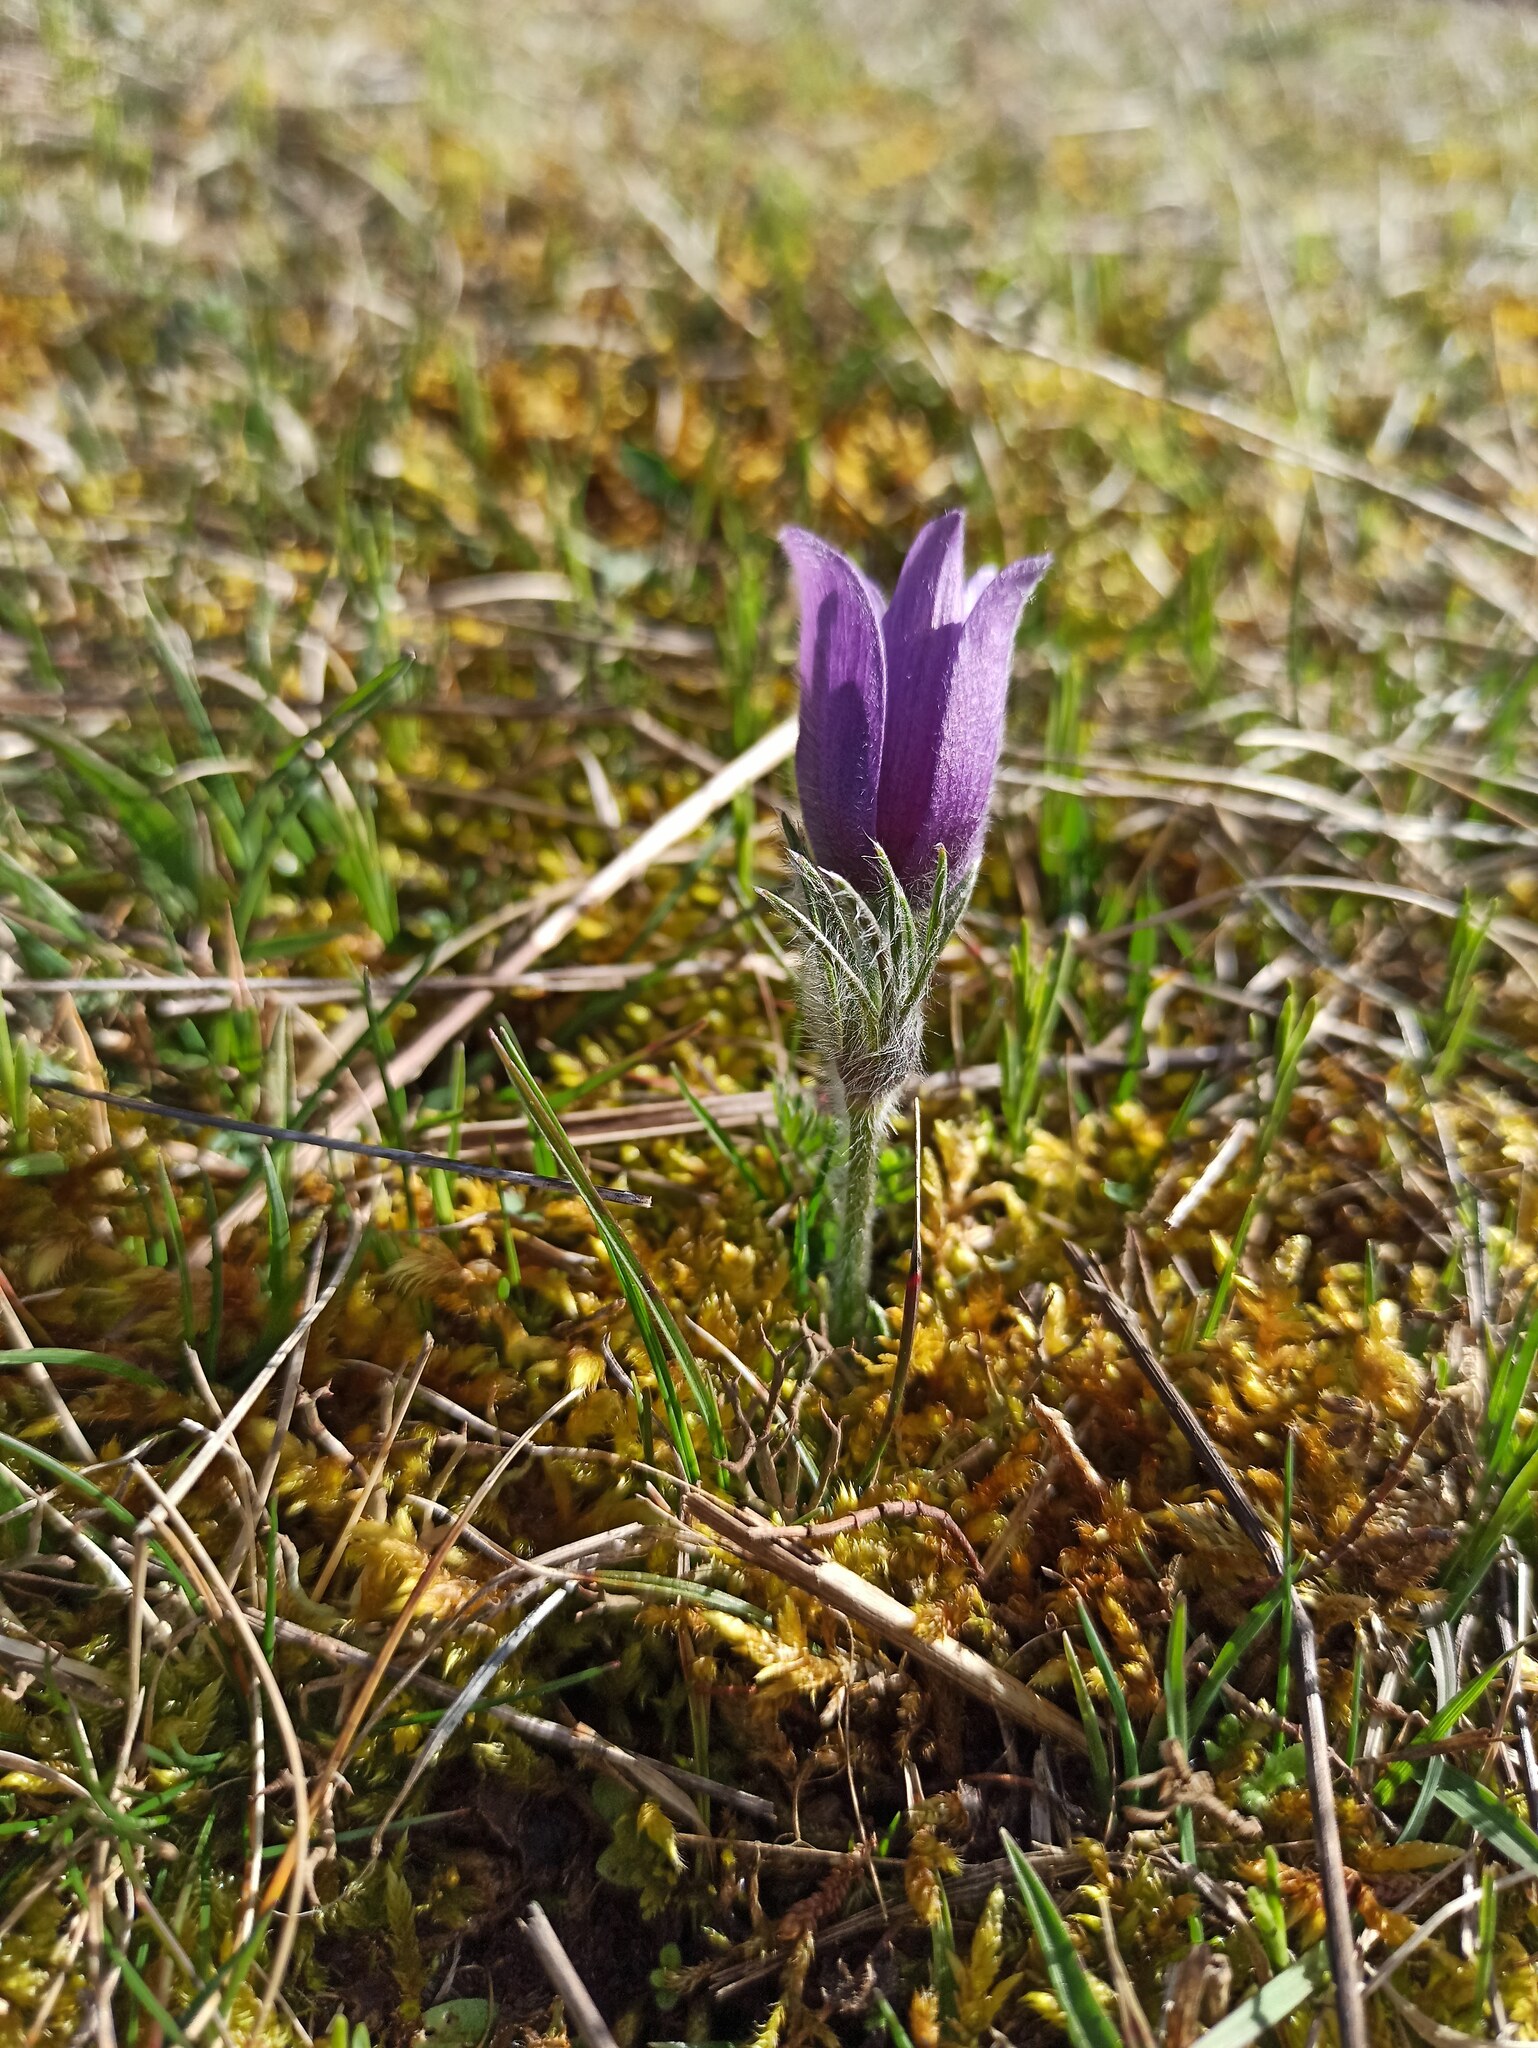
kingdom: Plantae
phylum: Tracheophyta
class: Magnoliopsida
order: Ranunculales
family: Ranunculaceae
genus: Pulsatilla
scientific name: Pulsatilla vulgaris
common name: Pasqueflower
